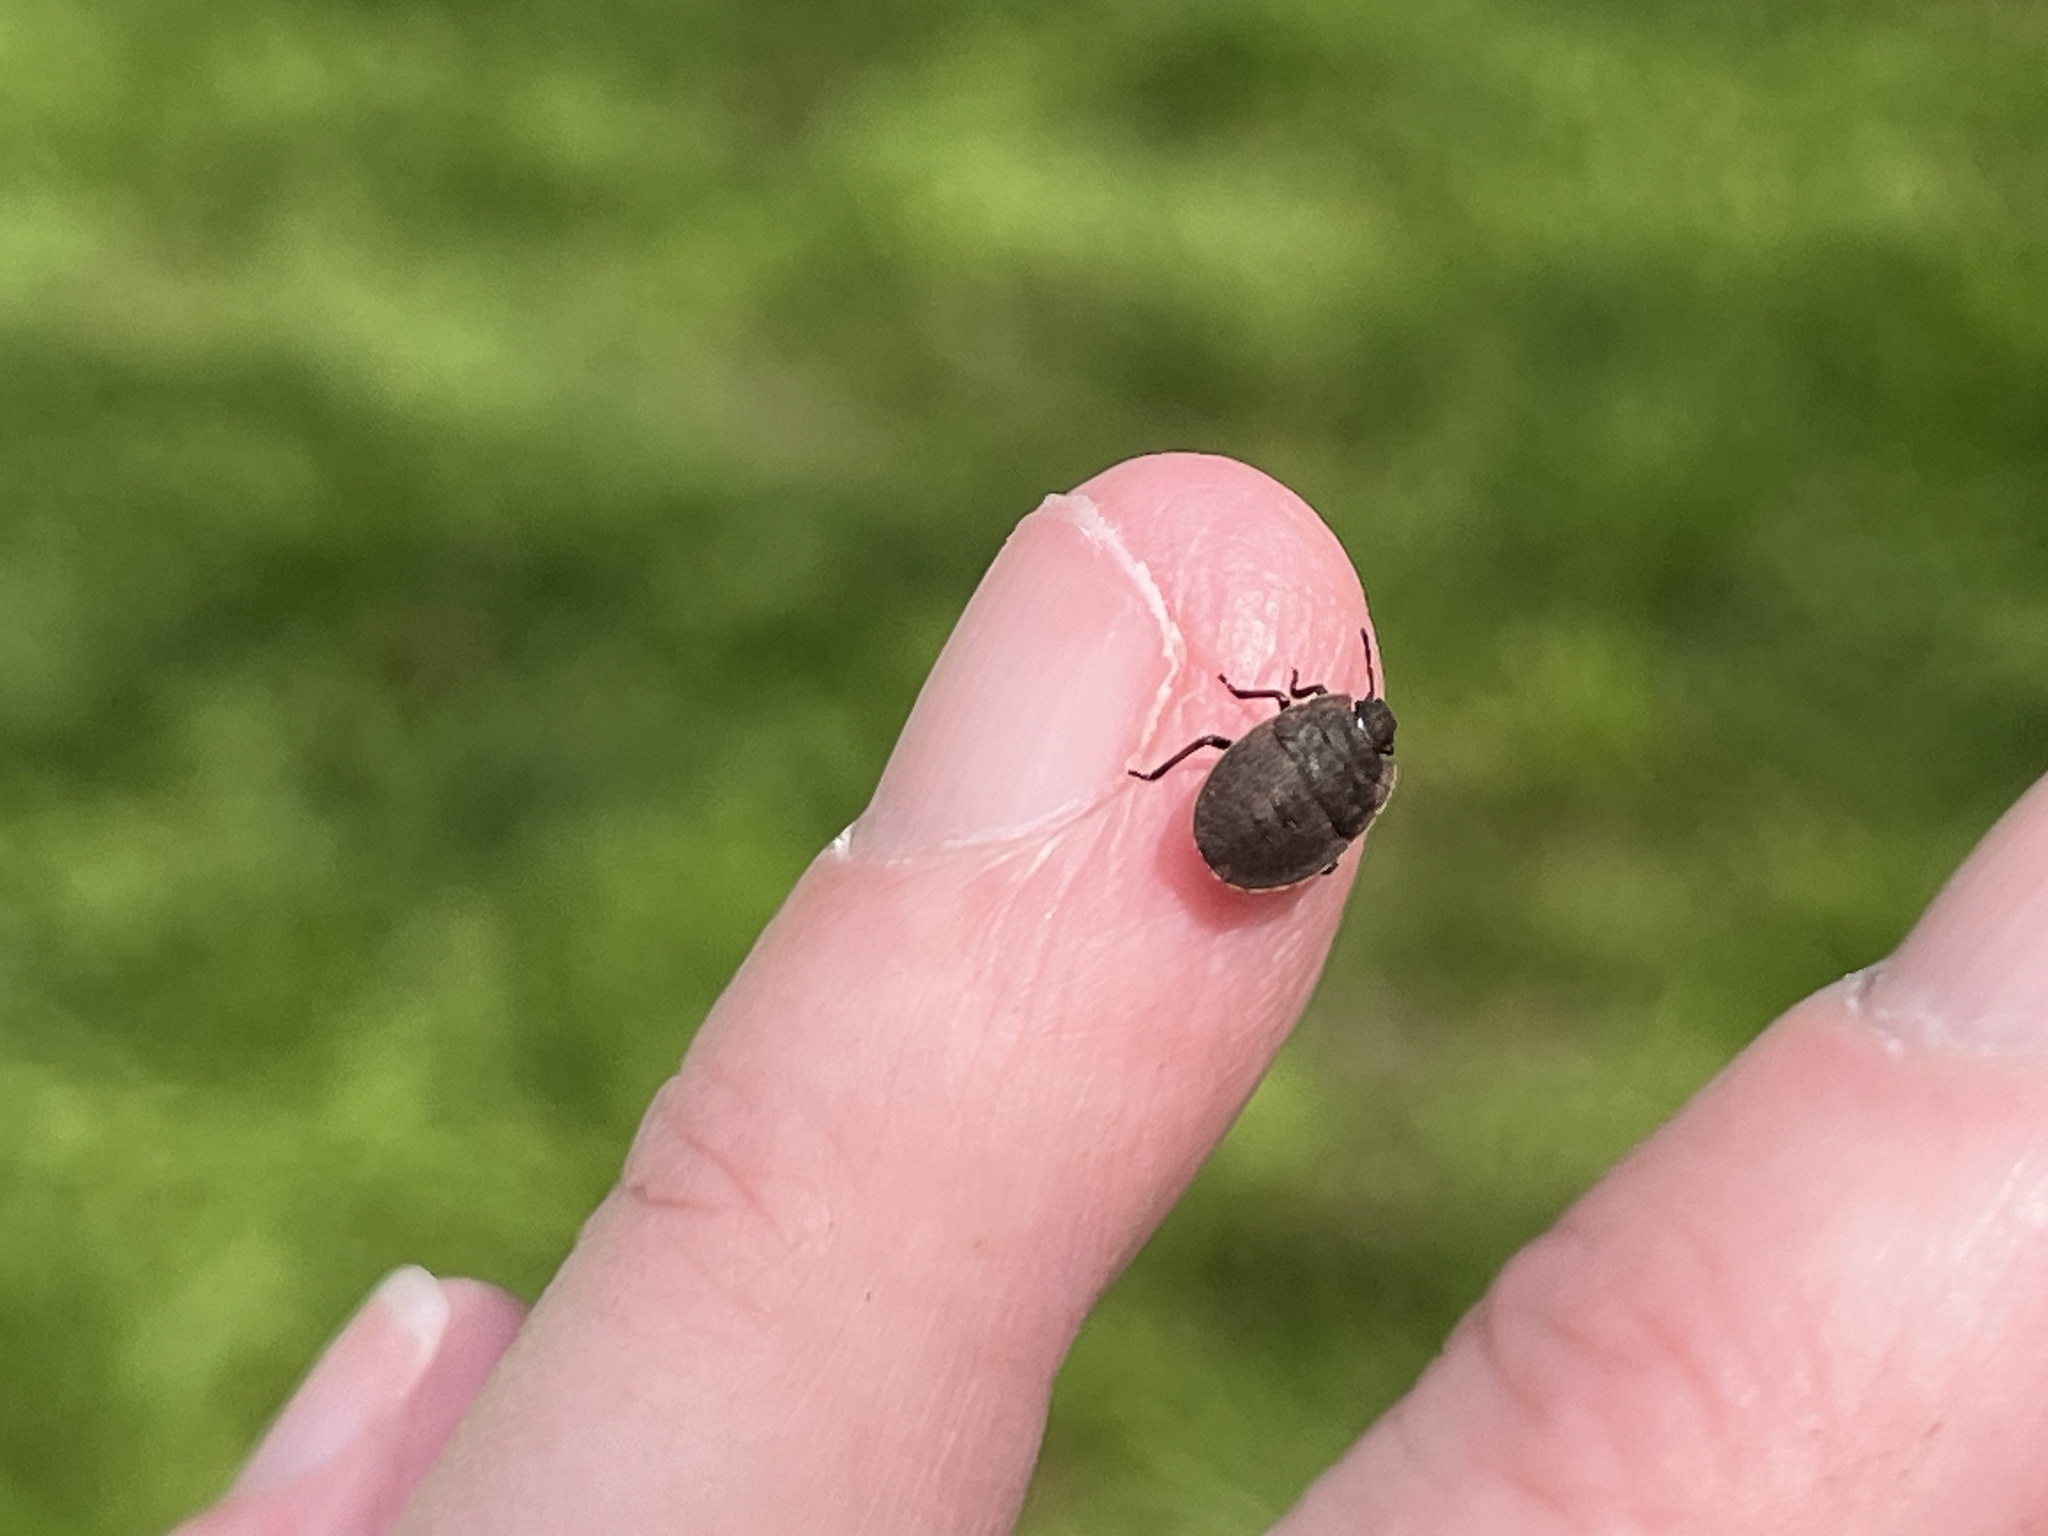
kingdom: Animalia
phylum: Arthropoda
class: Insecta
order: Hemiptera
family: Pentatomidae
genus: Menecles
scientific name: Menecles insertus
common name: Elf shoe stink bug
